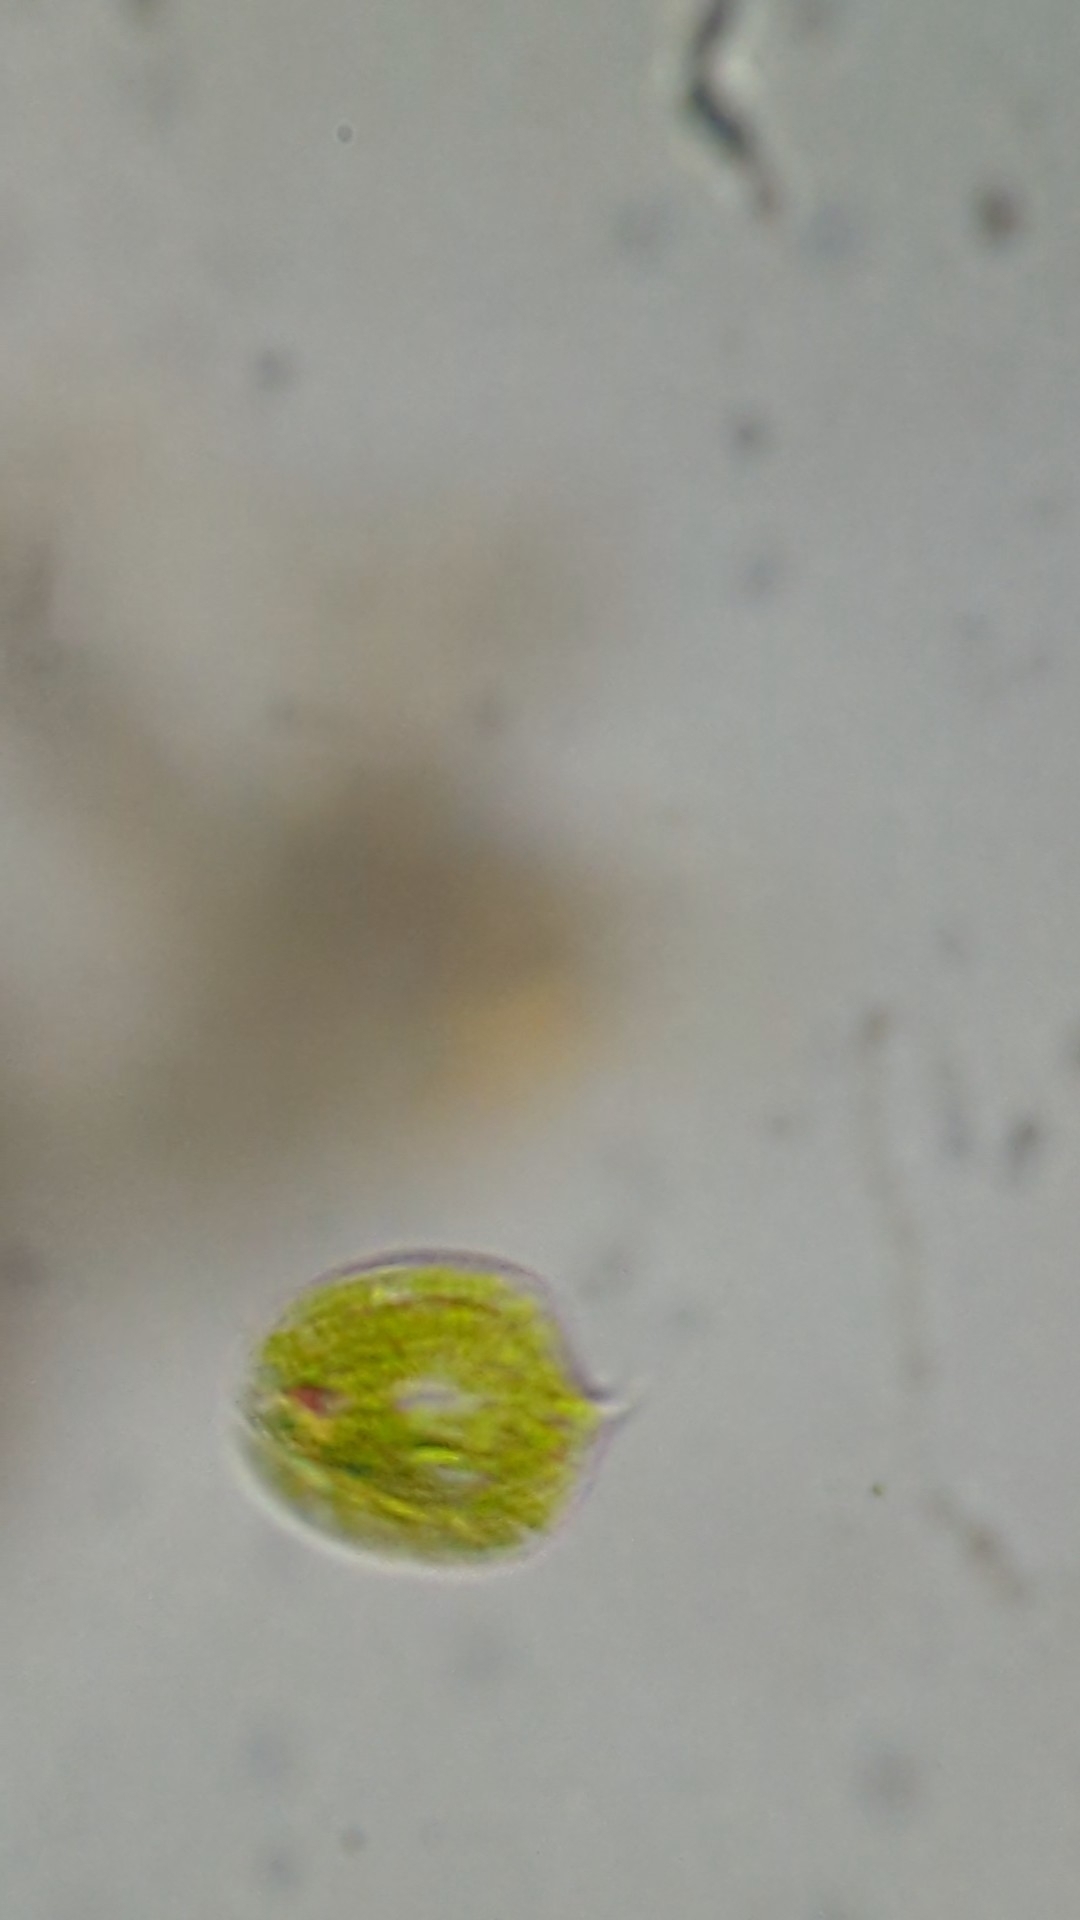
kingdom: Protozoa
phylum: Euglenozoa
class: Euglenoidea
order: Euglenida
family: Phacidae
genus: Phacus
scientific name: Phacus orbicularis
